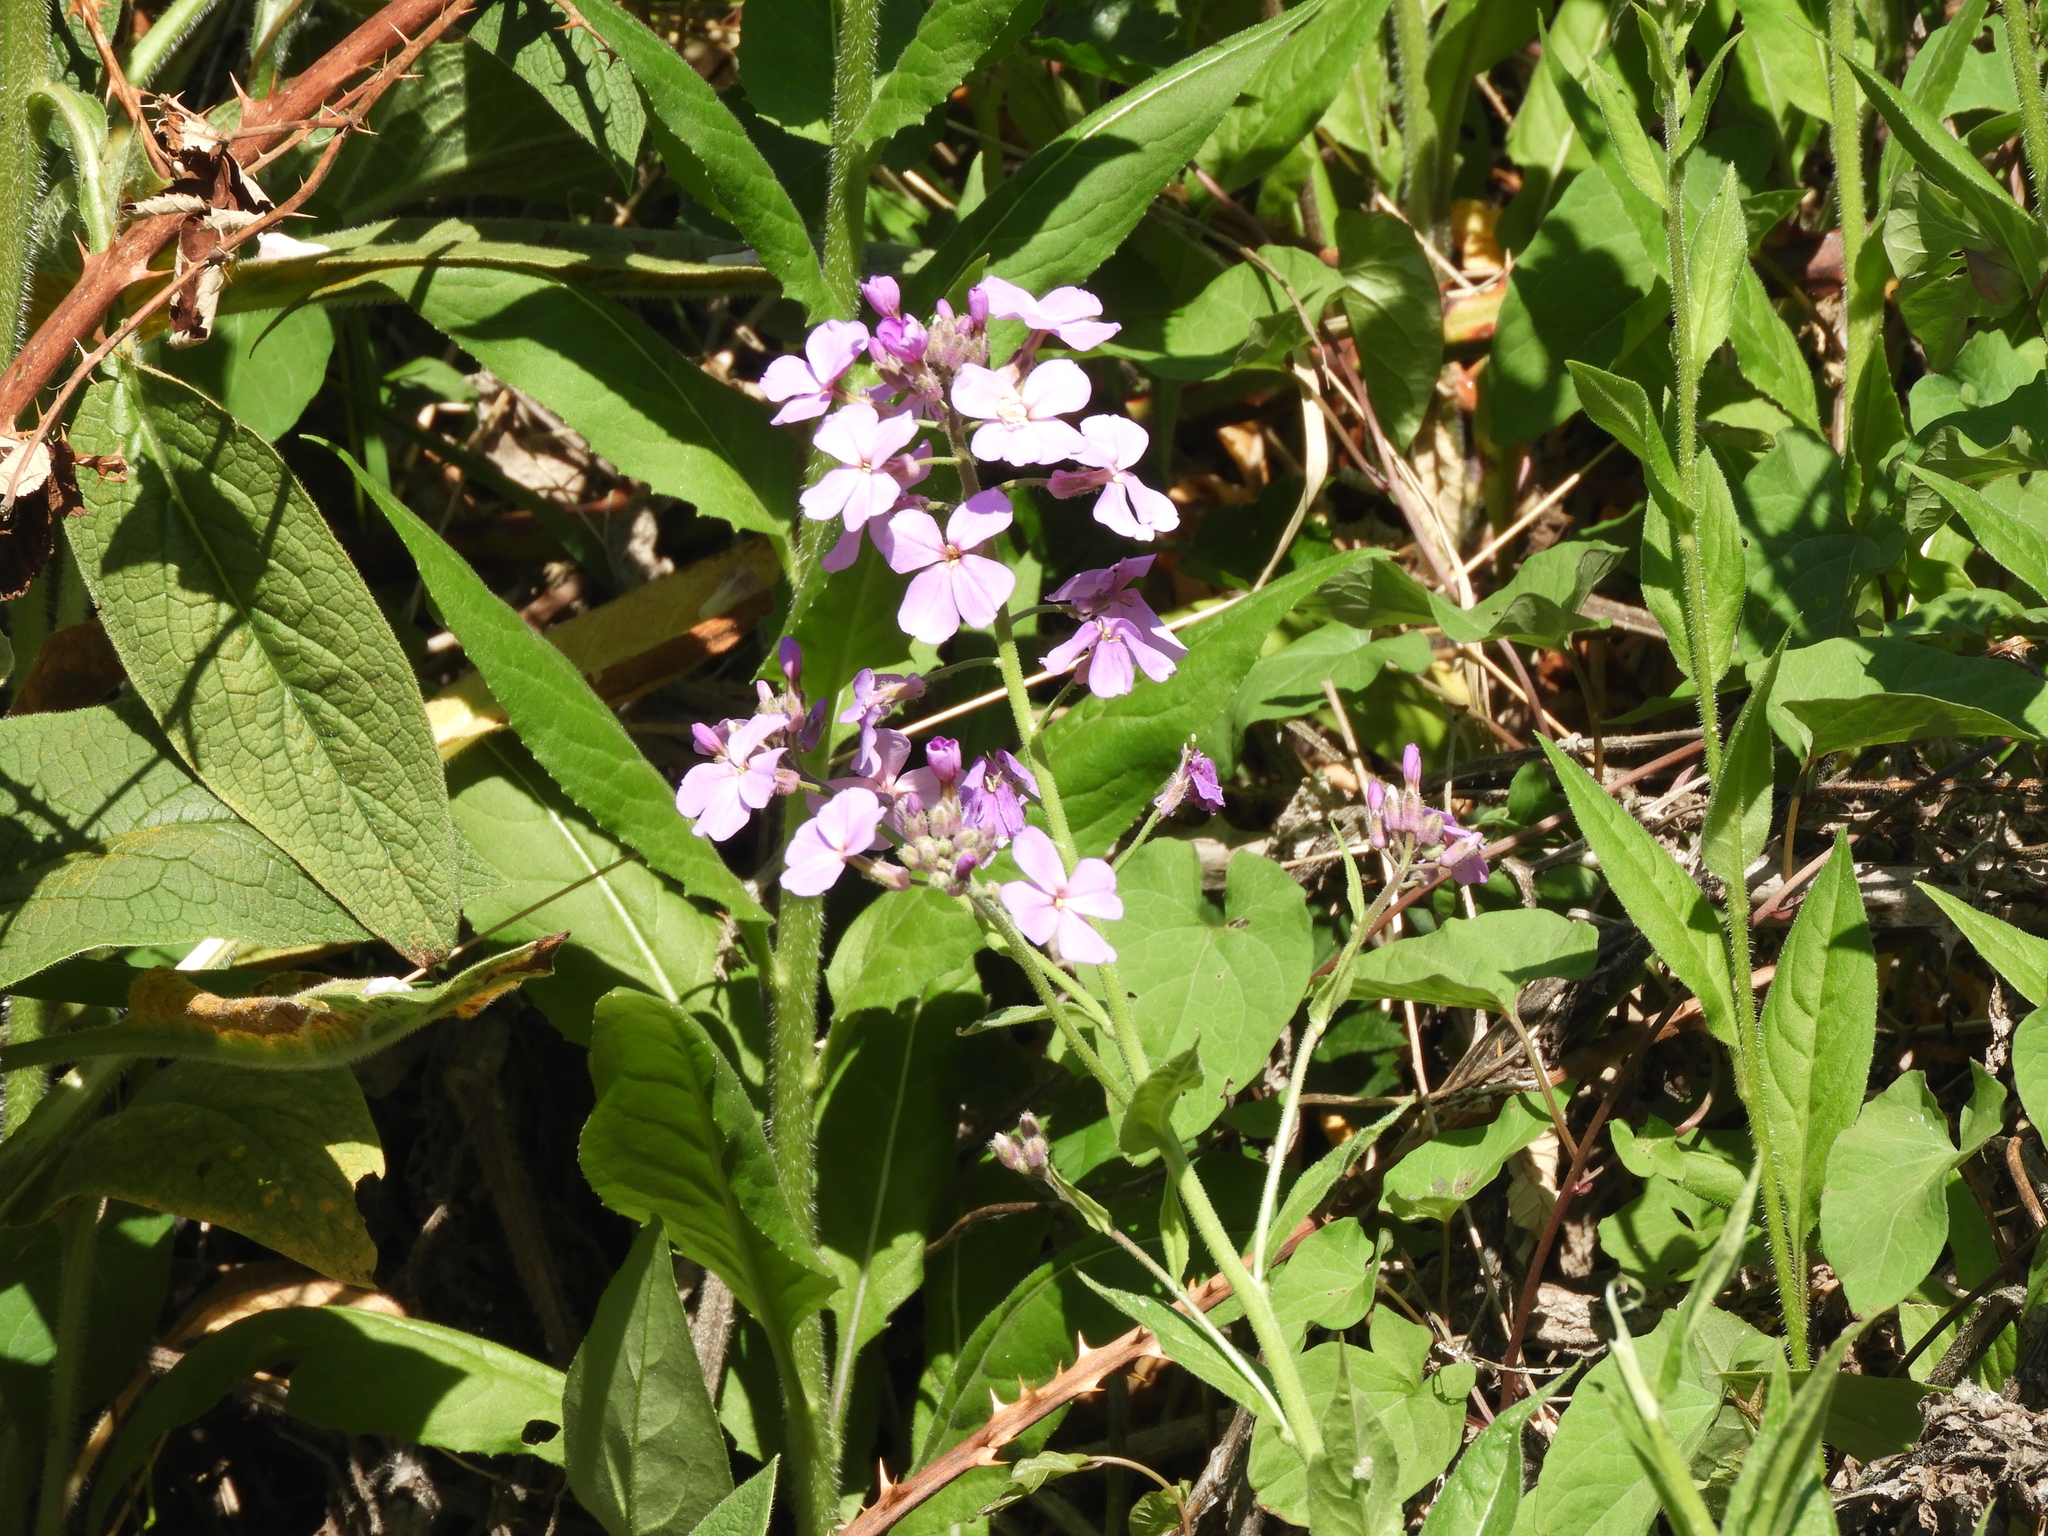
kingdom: Plantae
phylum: Tracheophyta
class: Magnoliopsida
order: Brassicales
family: Brassicaceae
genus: Hesperis
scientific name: Hesperis matronalis
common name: Dame's-violet
